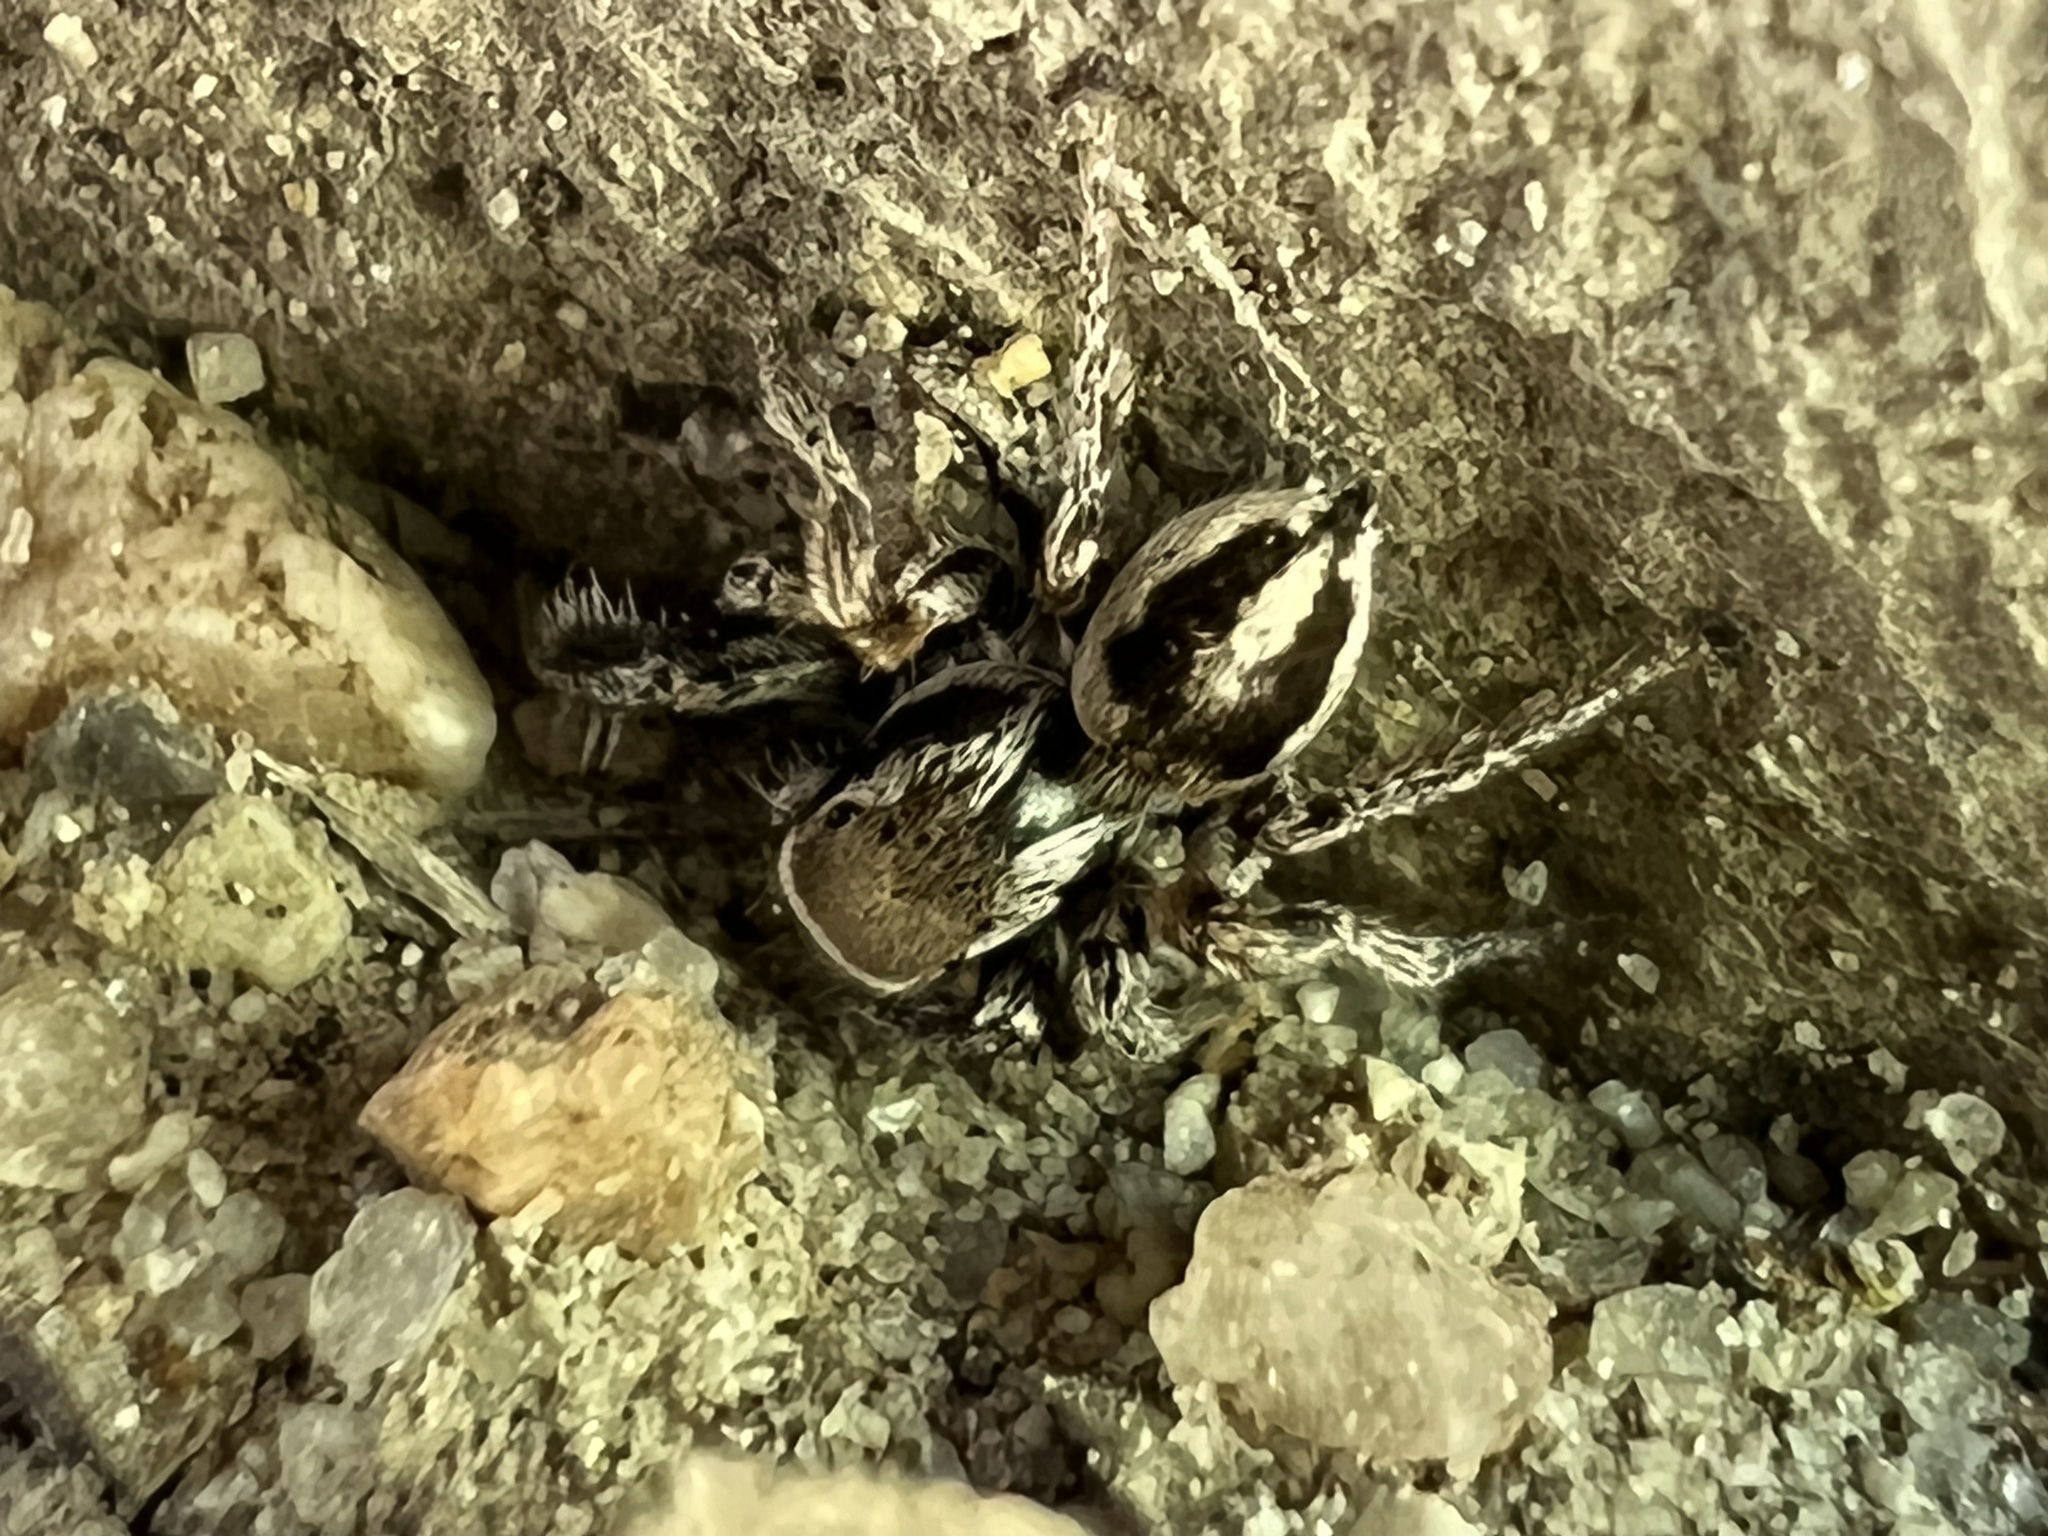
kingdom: Animalia
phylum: Arthropoda
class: Arachnida
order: Araneae
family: Salticidae
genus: Habronattus
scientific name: Habronattus clypeatus
